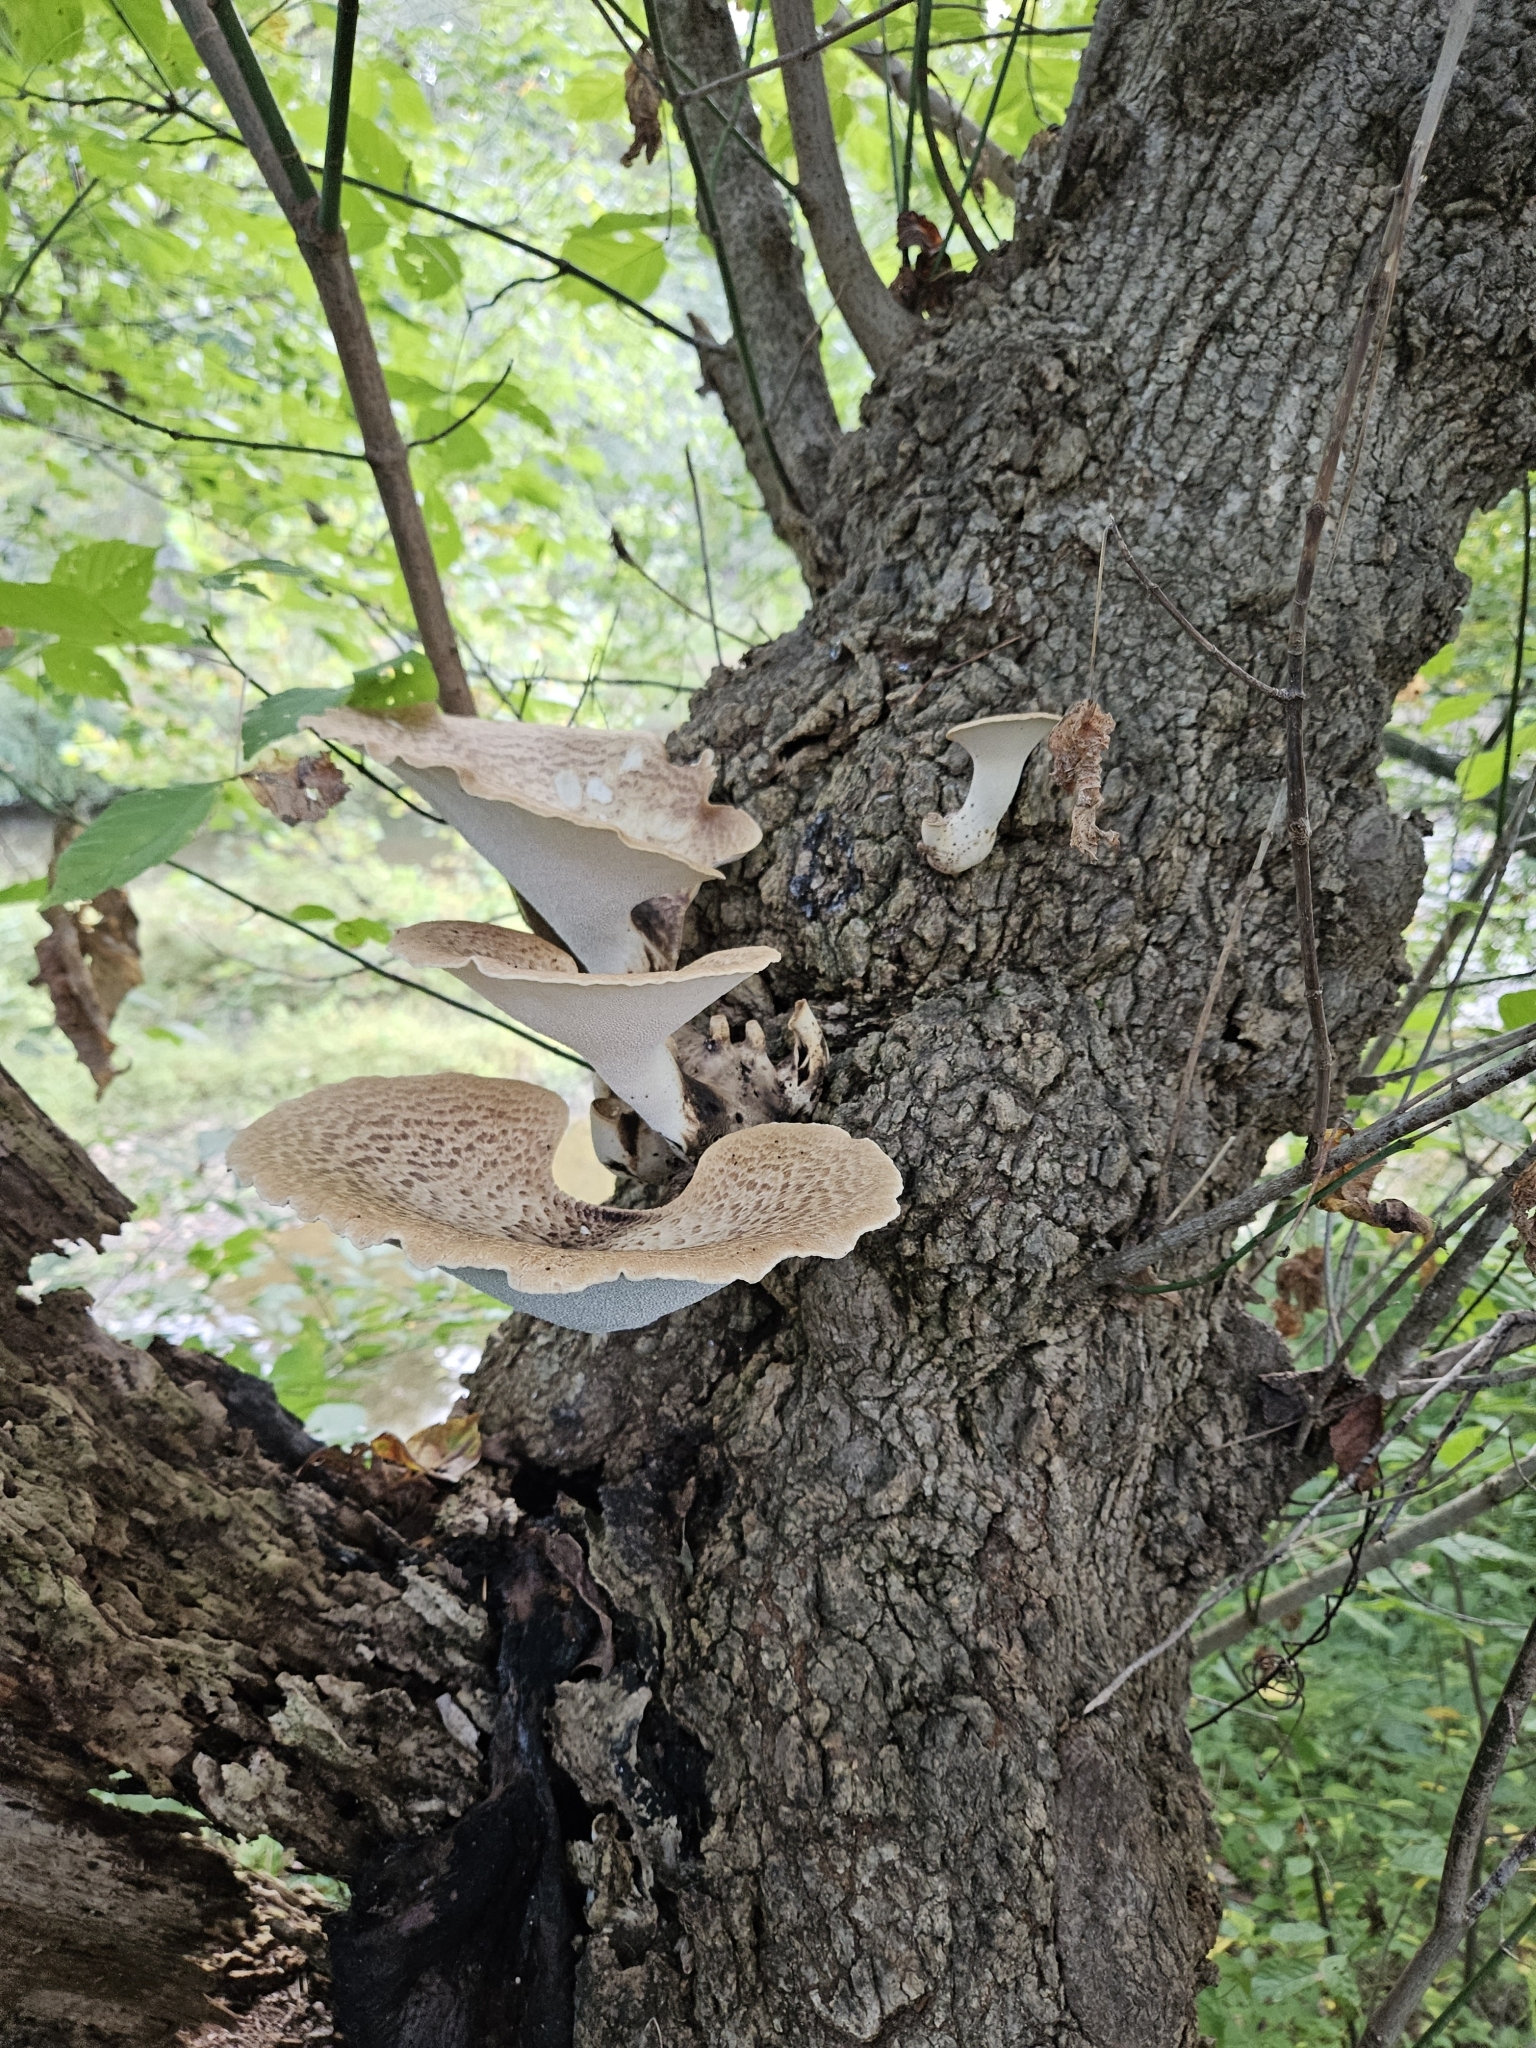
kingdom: Fungi
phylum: Basidiomycota
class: Agaricomycetes
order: Polyporales
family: Polyporaceae
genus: Cerioporus
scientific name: Cerioporus squamosus
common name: Dryad's saddle
